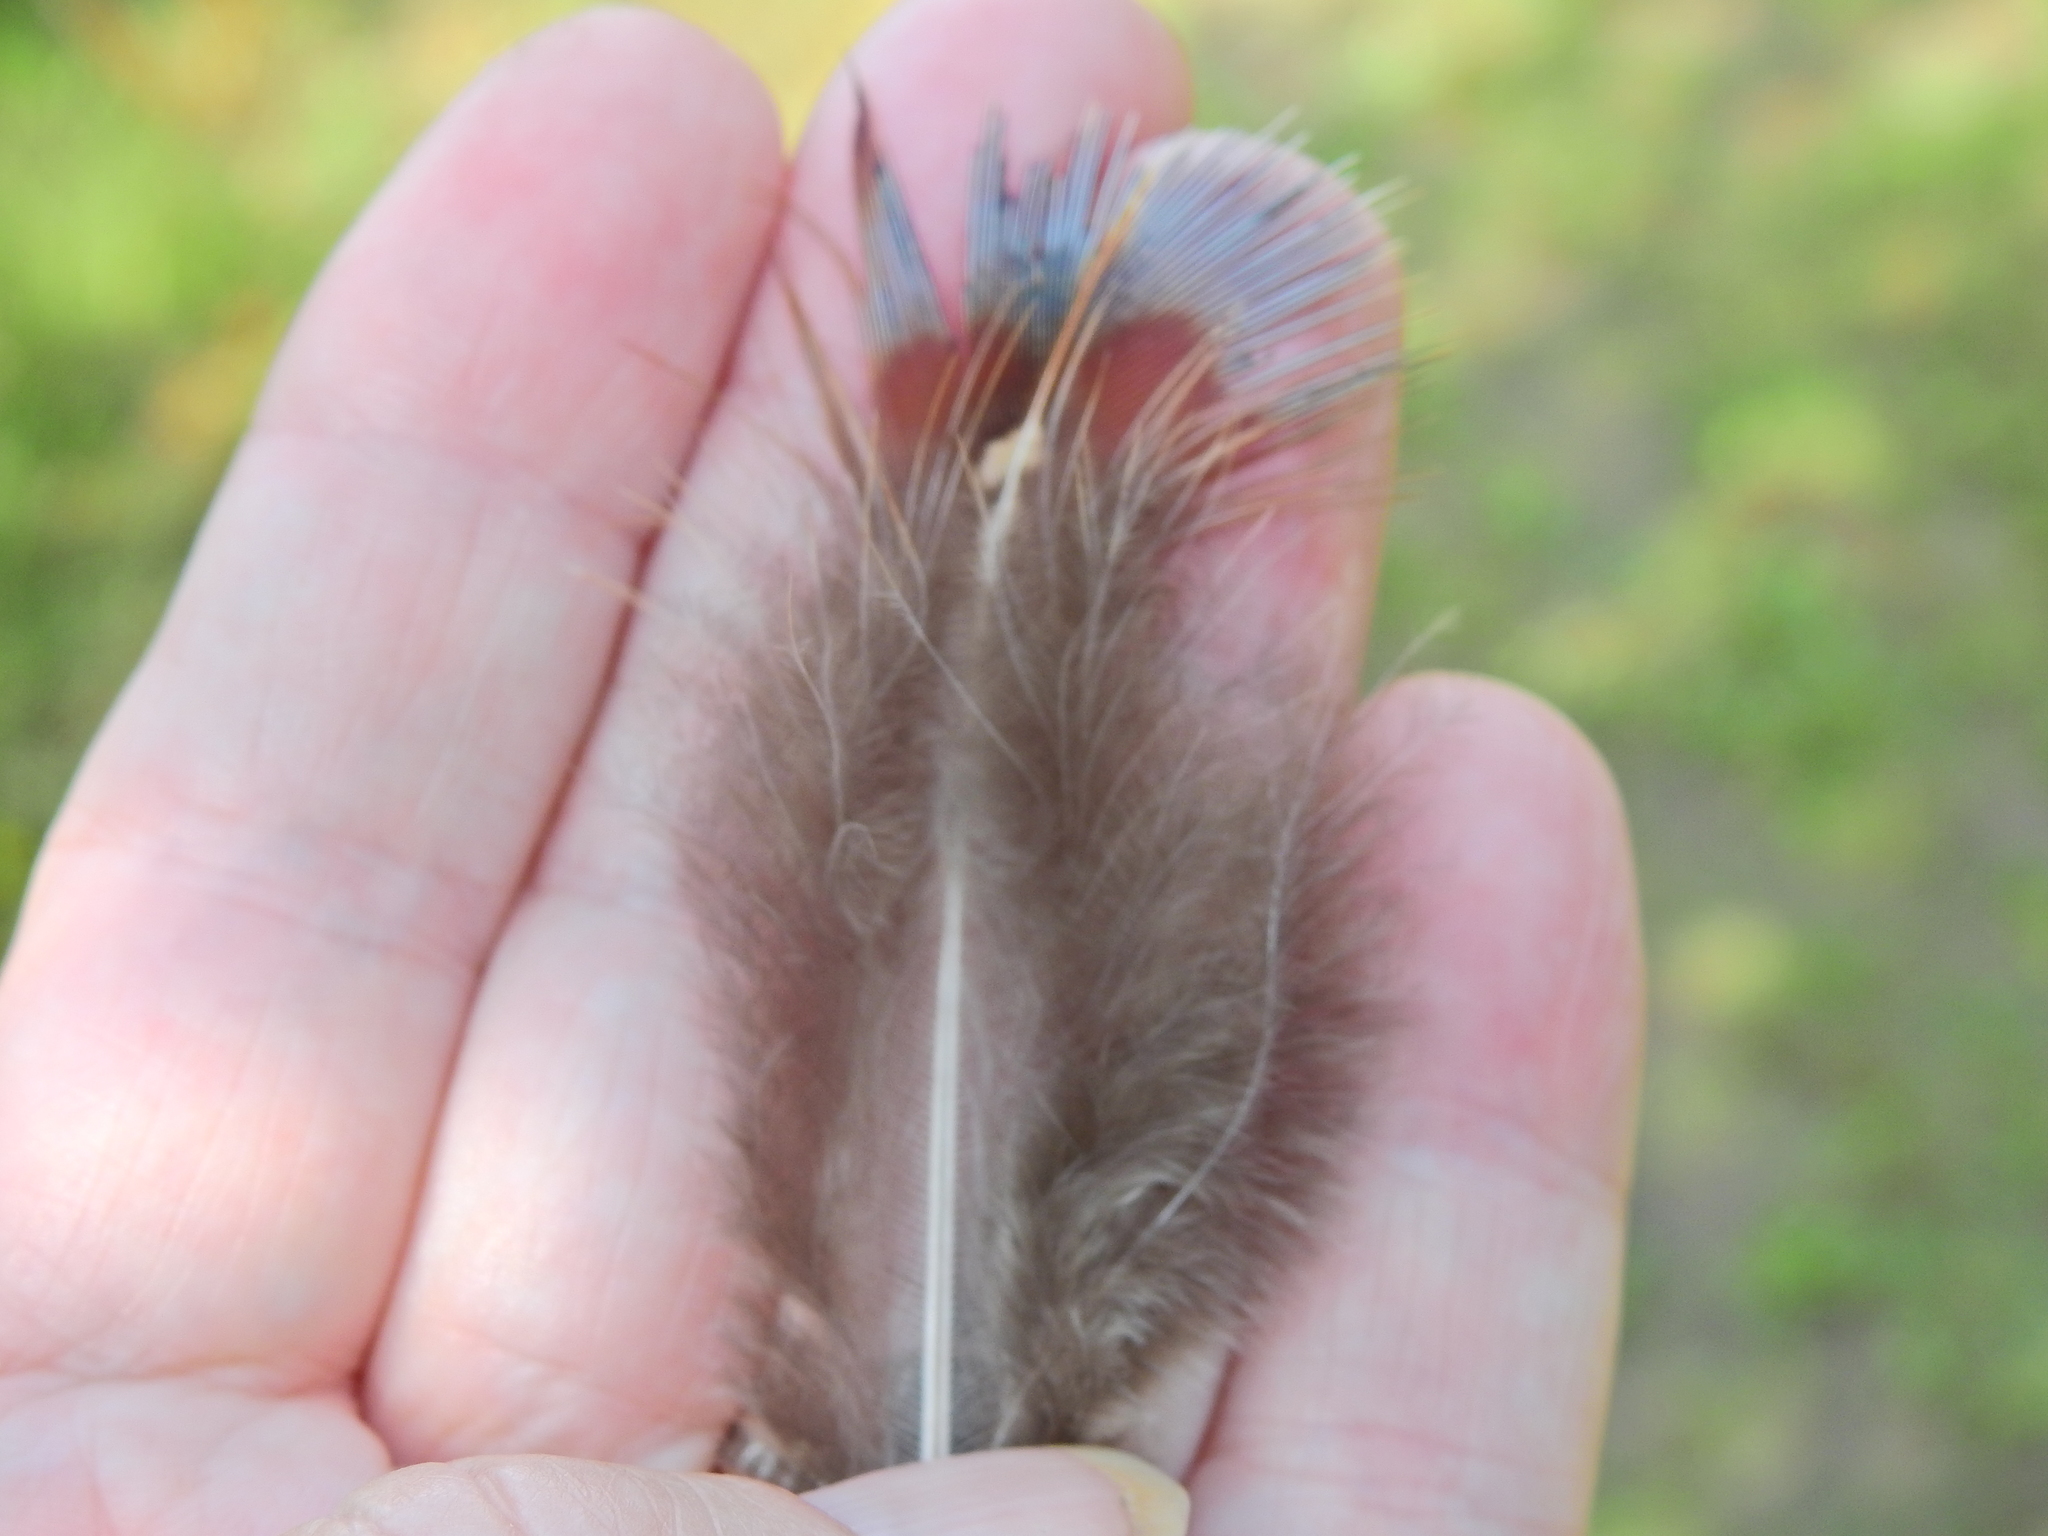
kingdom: Animalia
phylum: Chordata
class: Aves
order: Galliformes
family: Phasianidae
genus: Phasianus
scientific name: Phasianus colchicus
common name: Common pheasant
